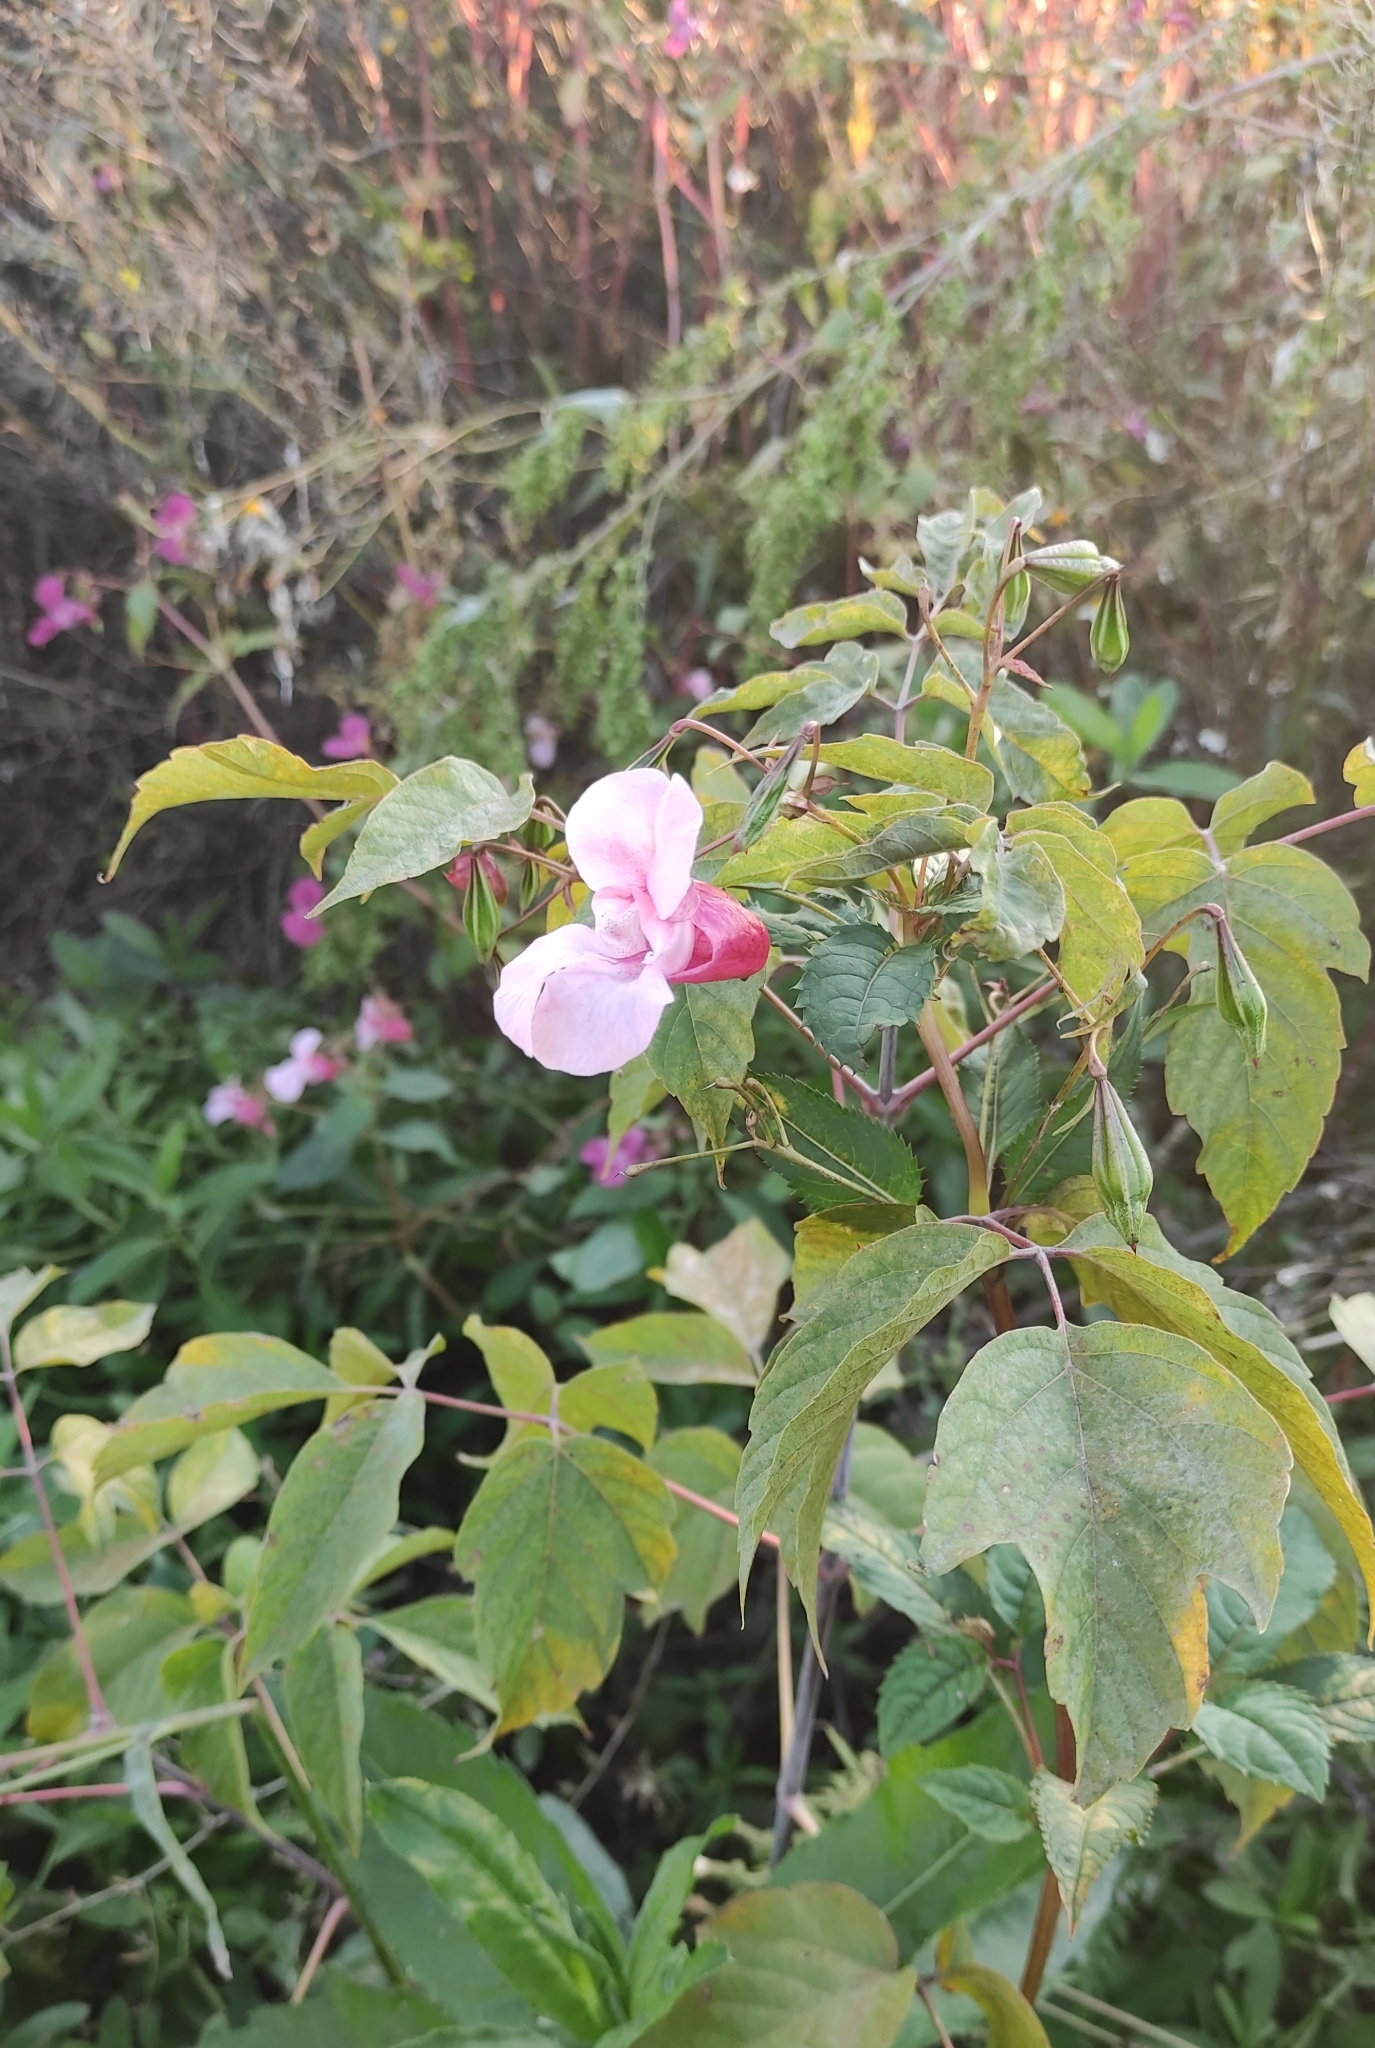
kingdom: Plantae
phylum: Tracheophyta
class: Magnoliopsida
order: Ericales
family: Balsaminaceae
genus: Impatiens
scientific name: Impatiens glandulifera
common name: Himalayan balsam
